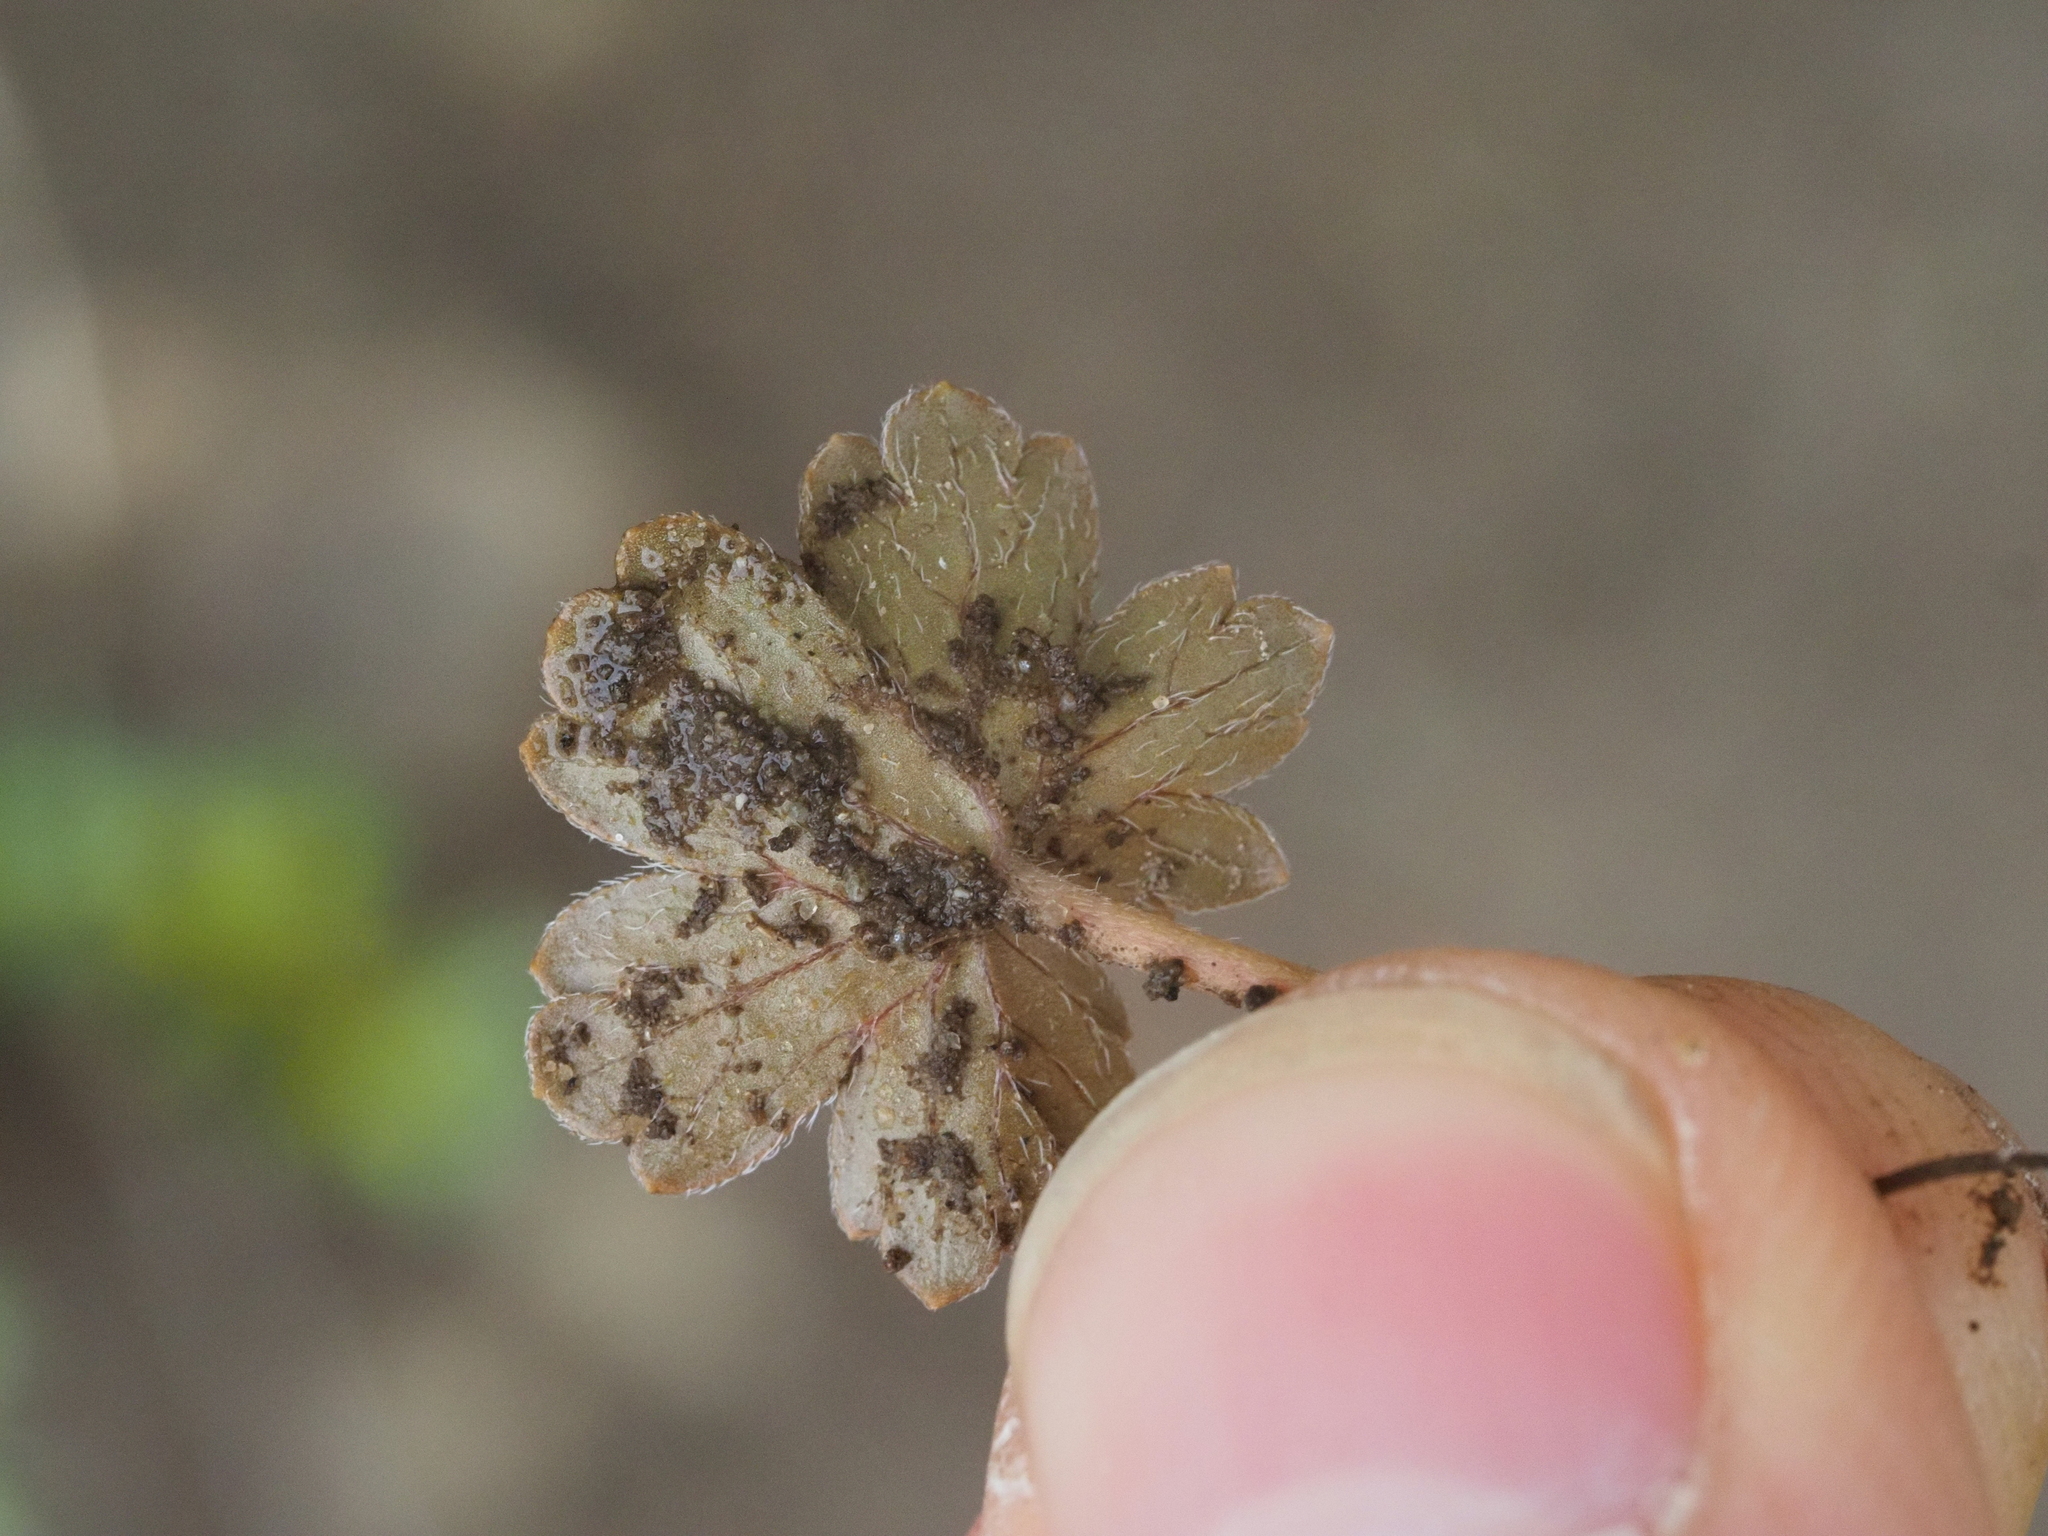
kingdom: Plantae
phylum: Tracheophyta
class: Magnoliopsida
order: Geraniales
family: Geraniaceae
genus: Geranium
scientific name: Geranium brevicaule
